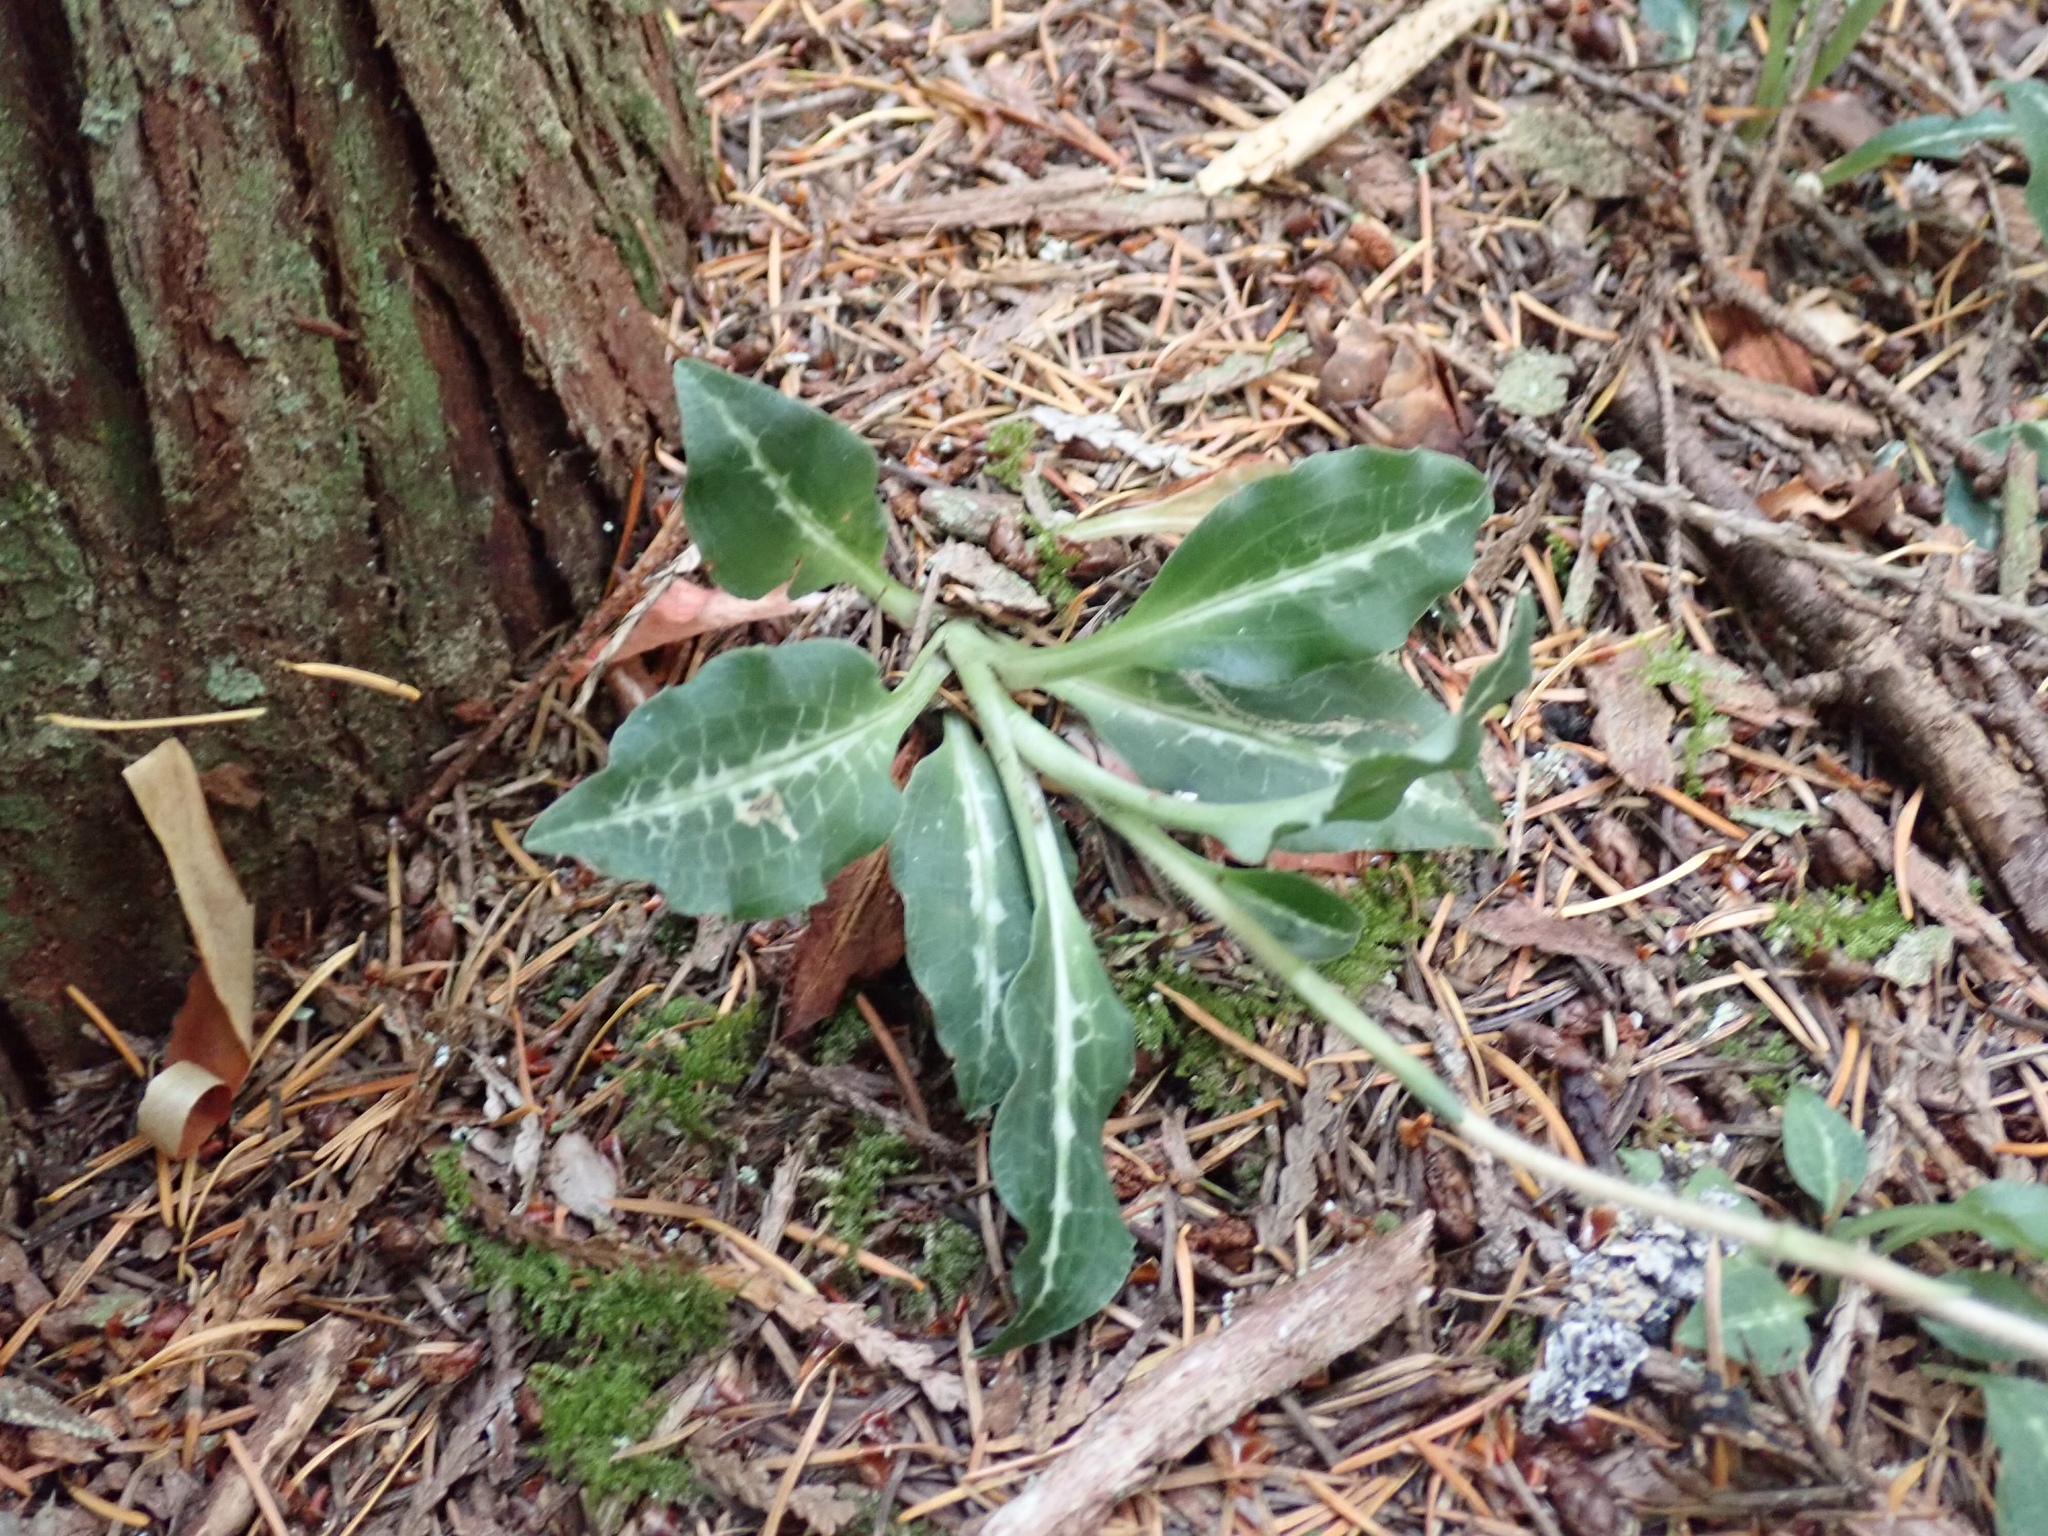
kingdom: Plantae
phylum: Tracheophyta
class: Liliopsida
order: Asparagales
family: Orchidaceae
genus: Goodyera
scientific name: Goodyera oblongifolia
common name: Giant rattlesnake-plantain
